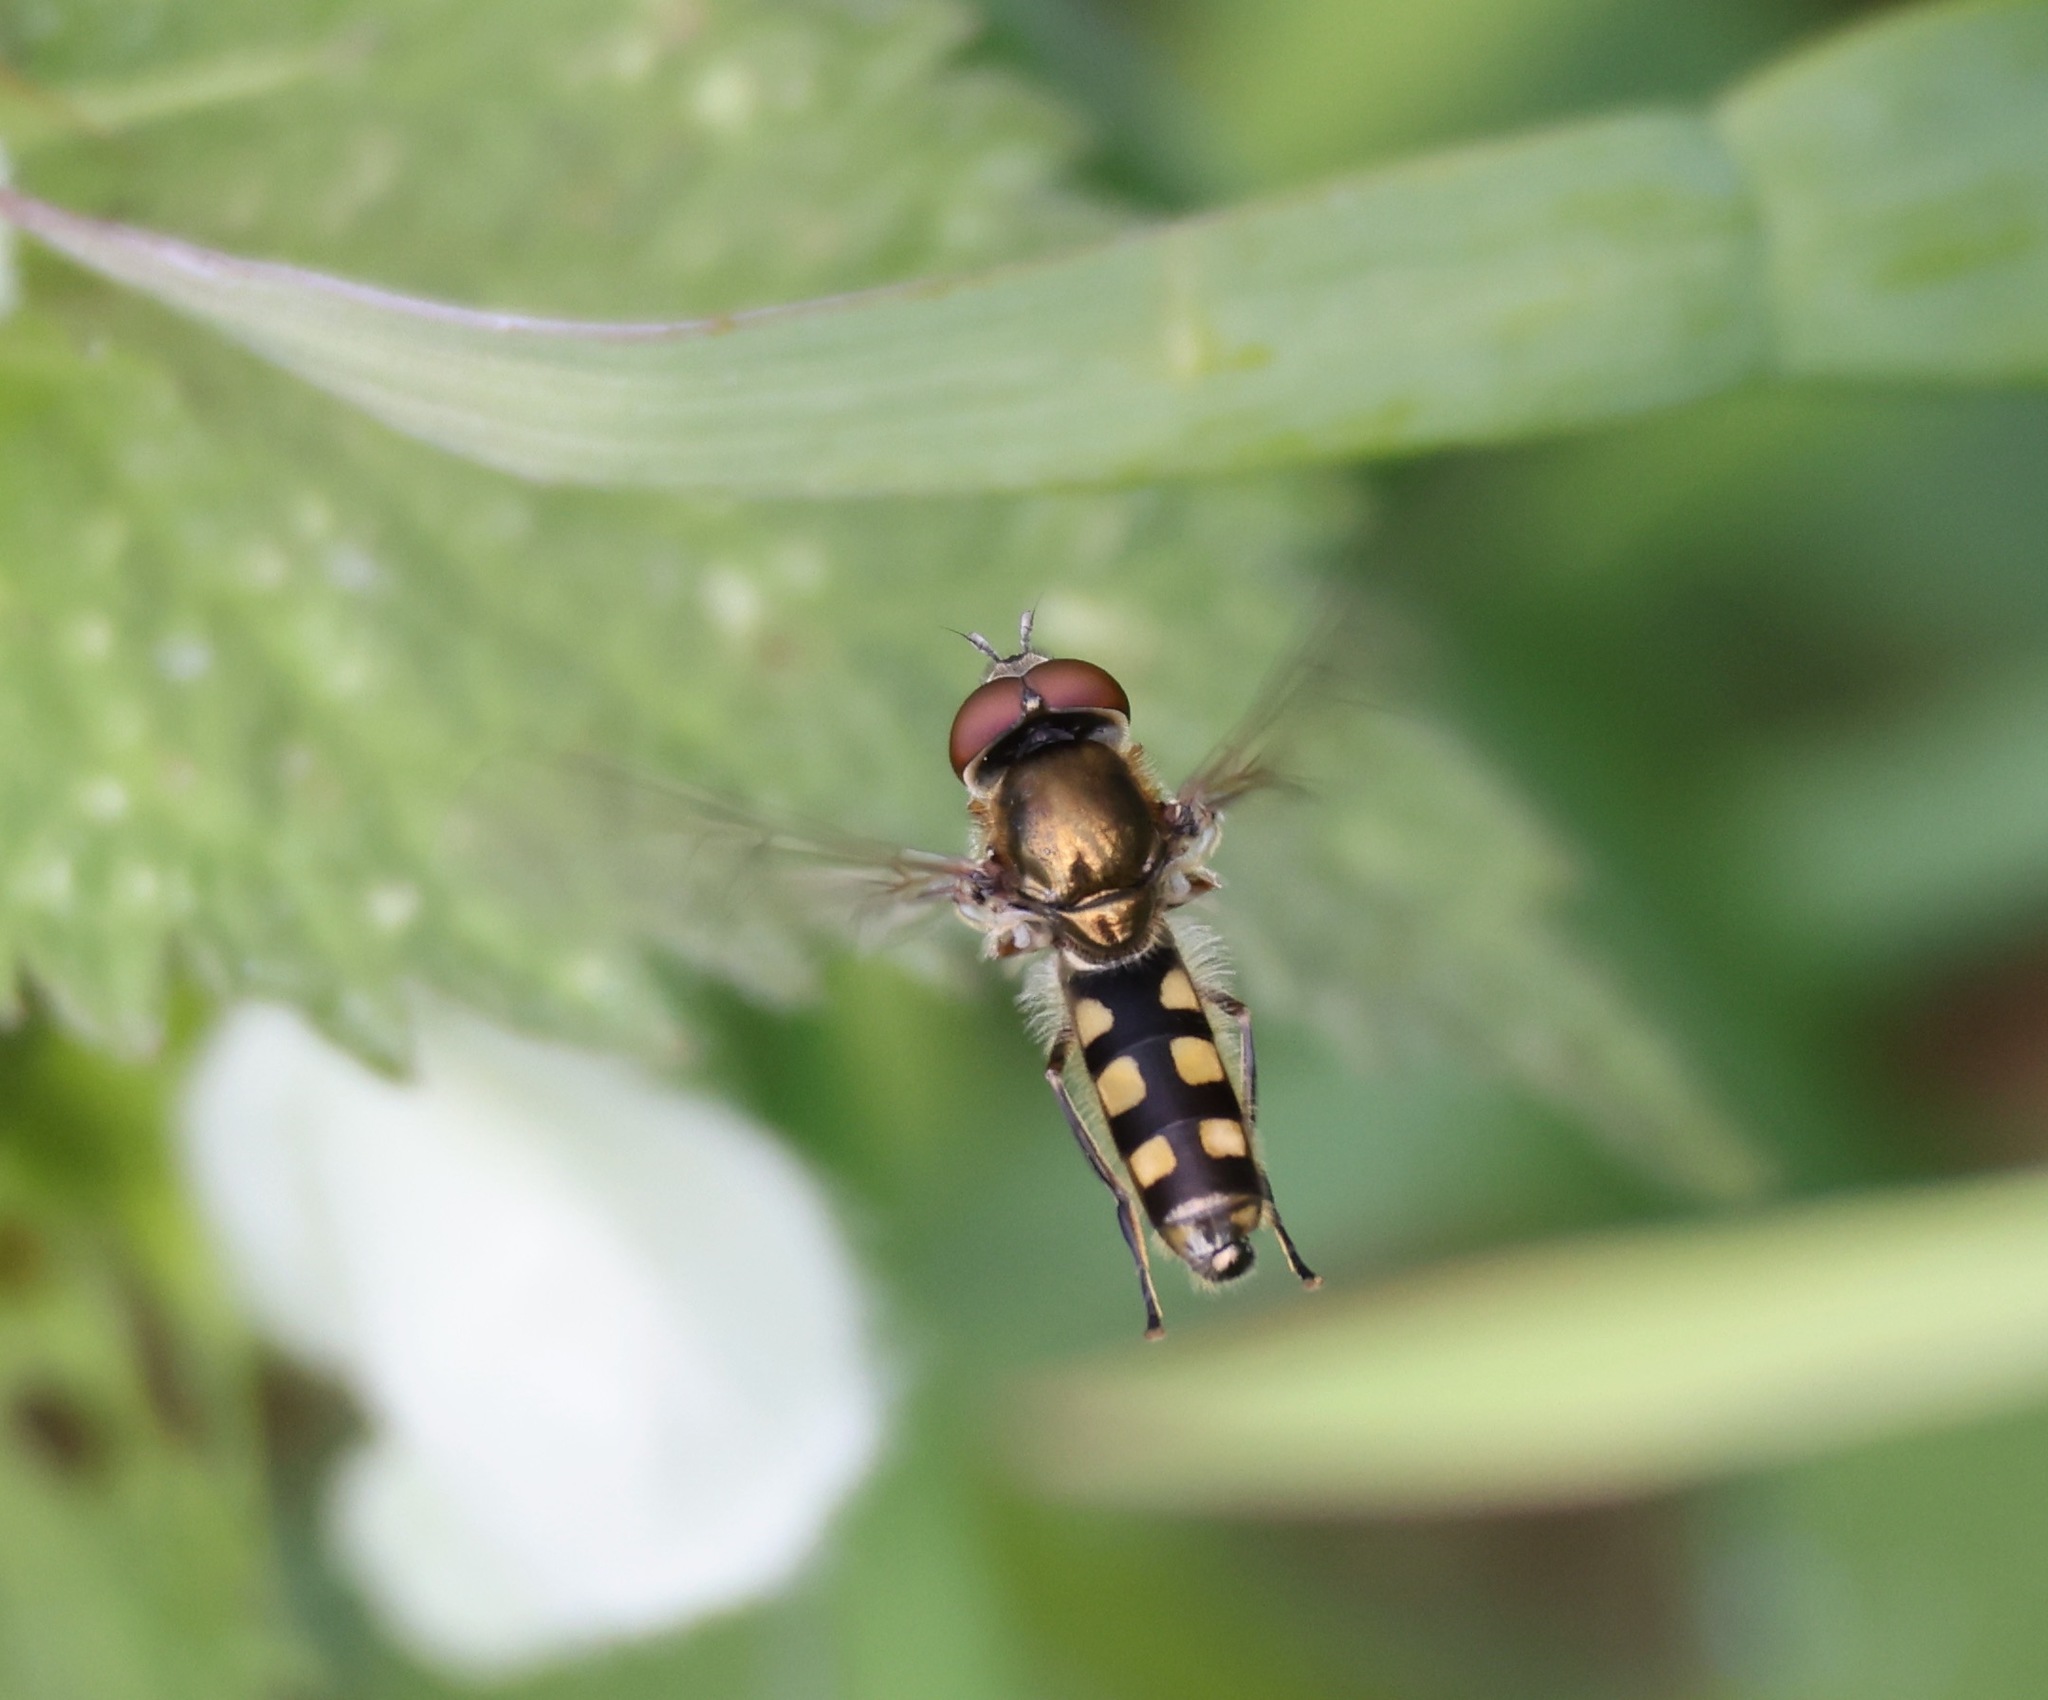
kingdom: Animalia
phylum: Arthropoda
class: Insecta
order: Diptera
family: Syrphidae
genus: Platycheirus
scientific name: Platycheirus peltatus
